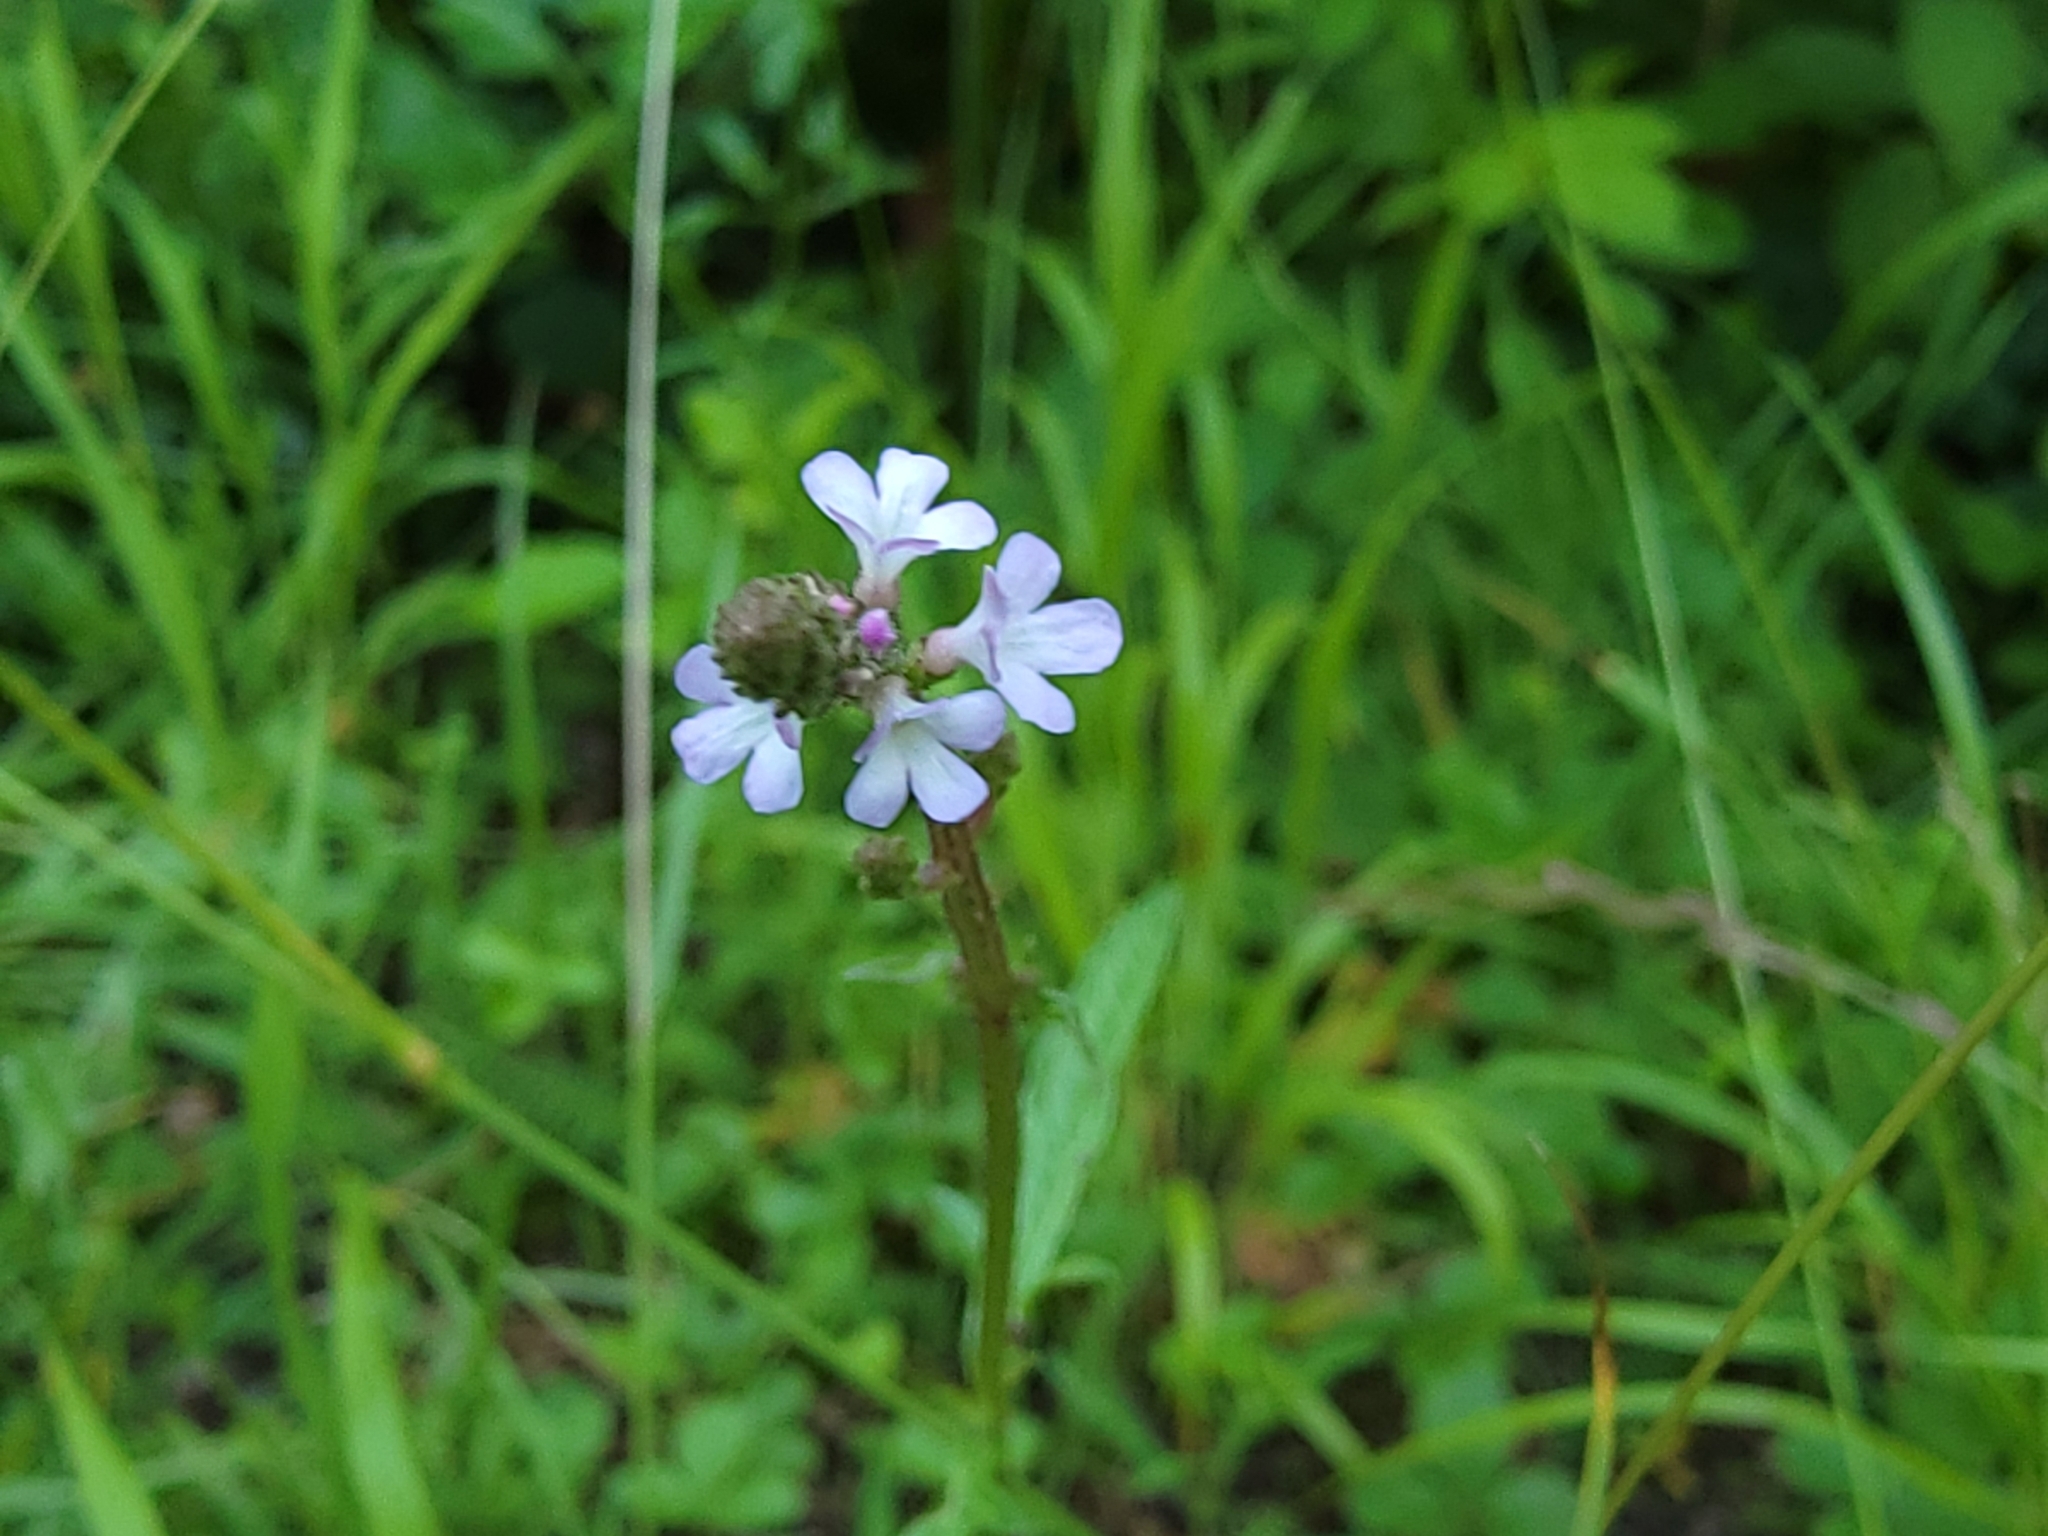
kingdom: Plantae
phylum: Tracheophyta
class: Magnoliopsida
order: Lamiales
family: Verbenaceae
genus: Verbena
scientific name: Verbena officinalis
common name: Vervain
